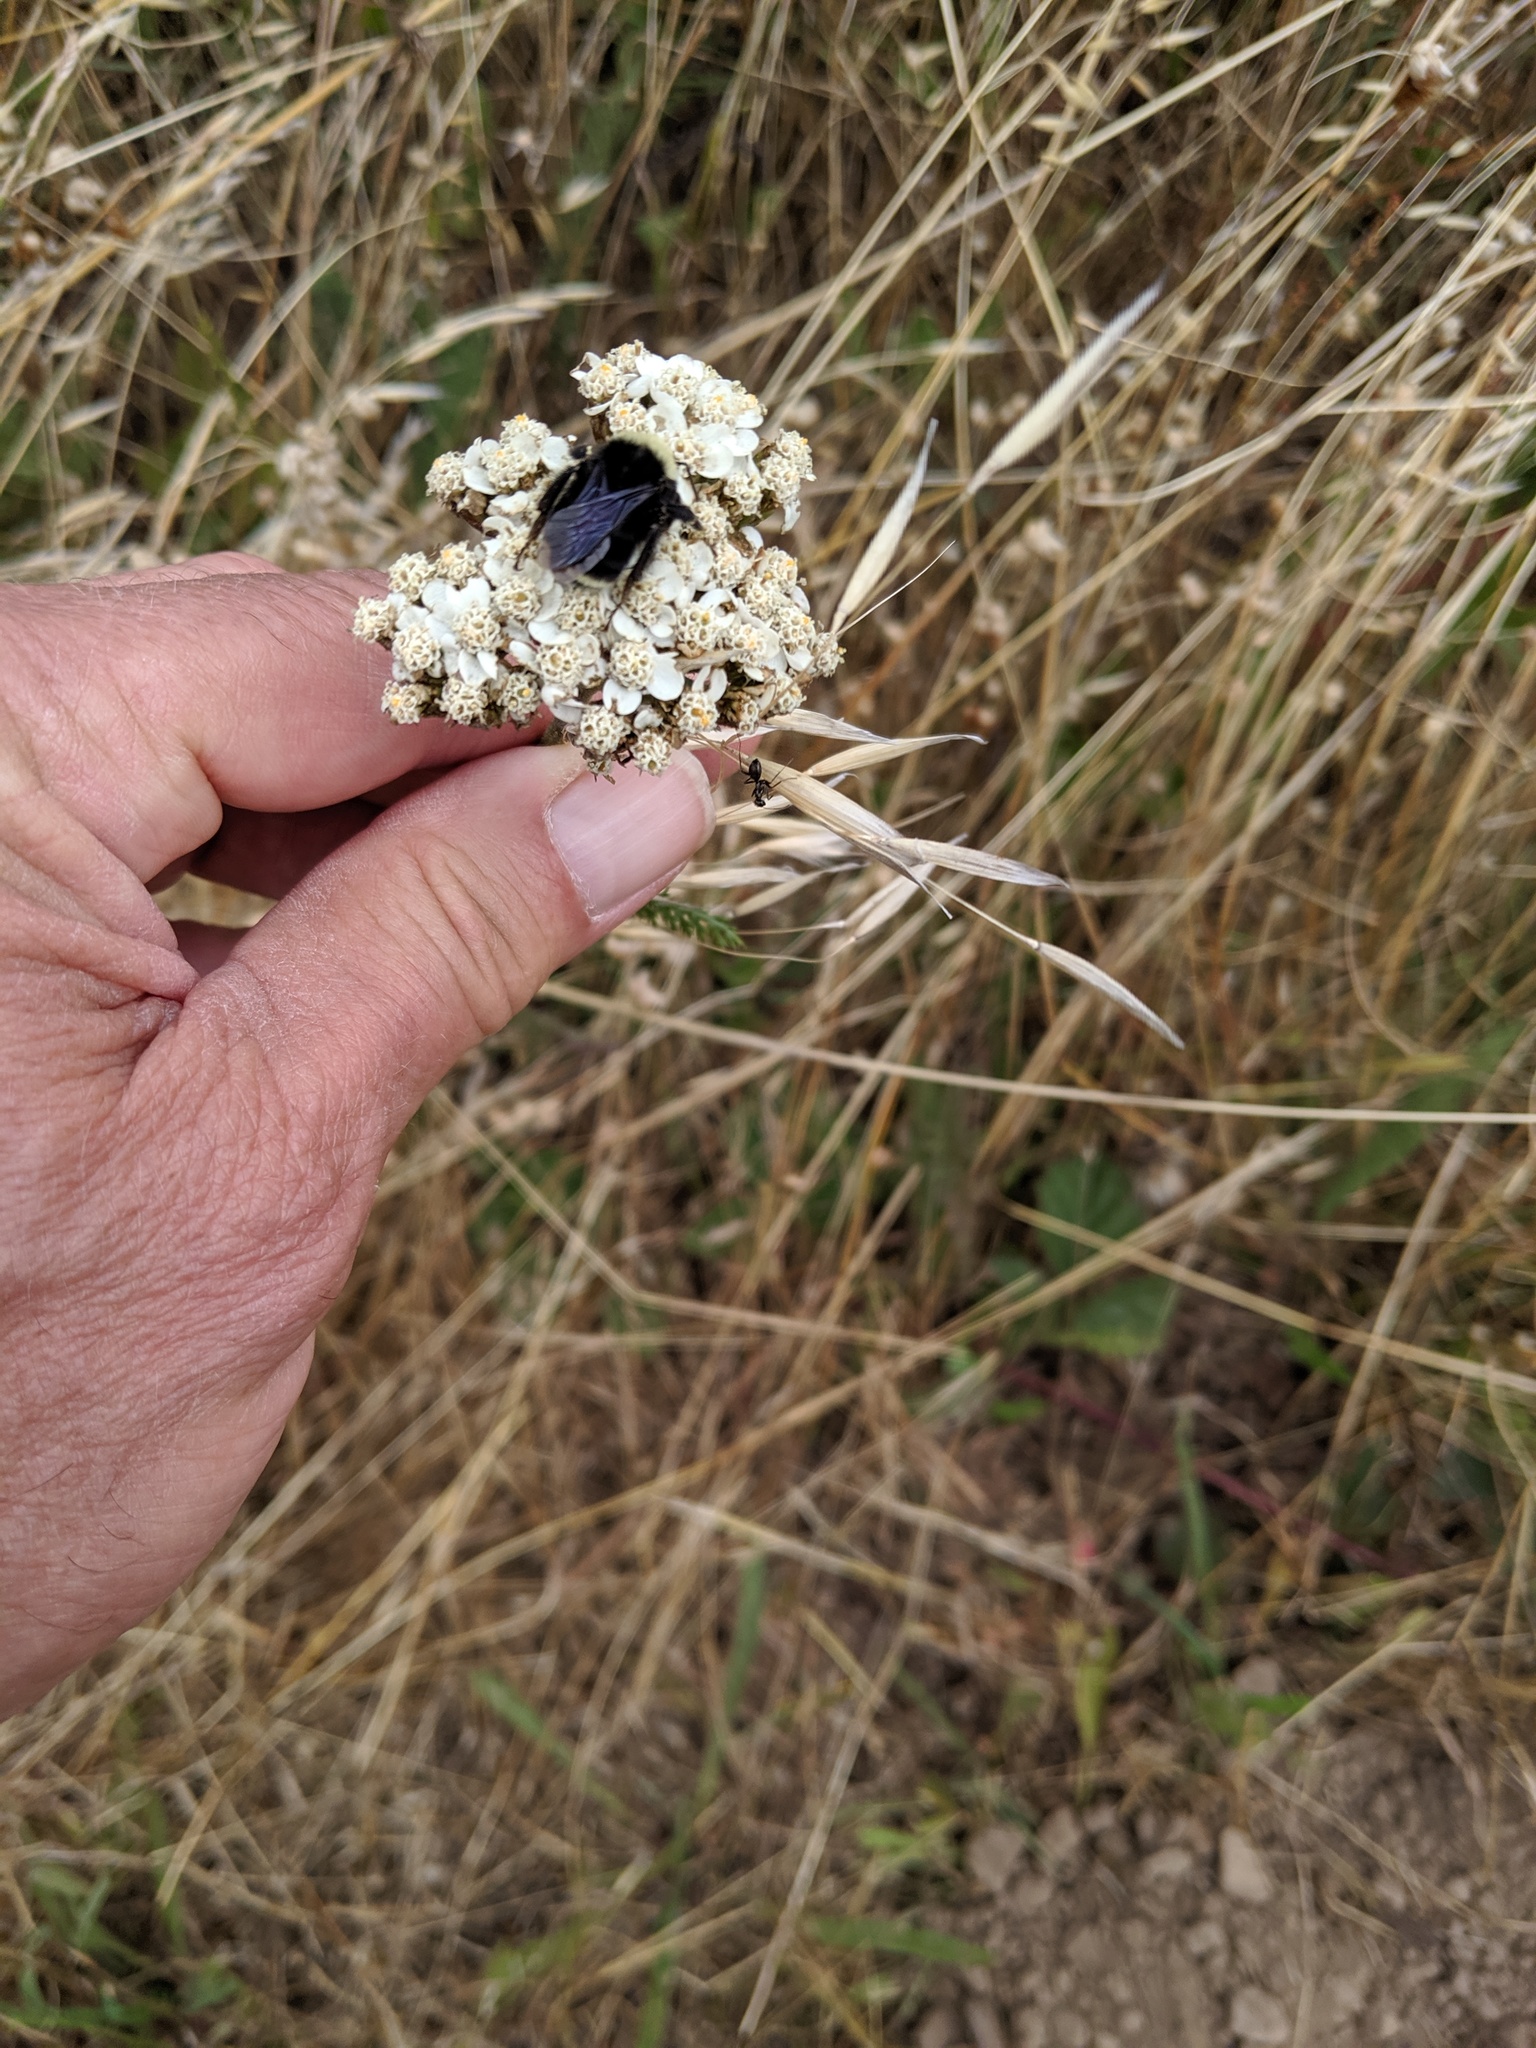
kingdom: Animalia
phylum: Arthropoda
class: Insecta
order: Hymenoptera
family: Apidae
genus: Bombus
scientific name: Bombus
